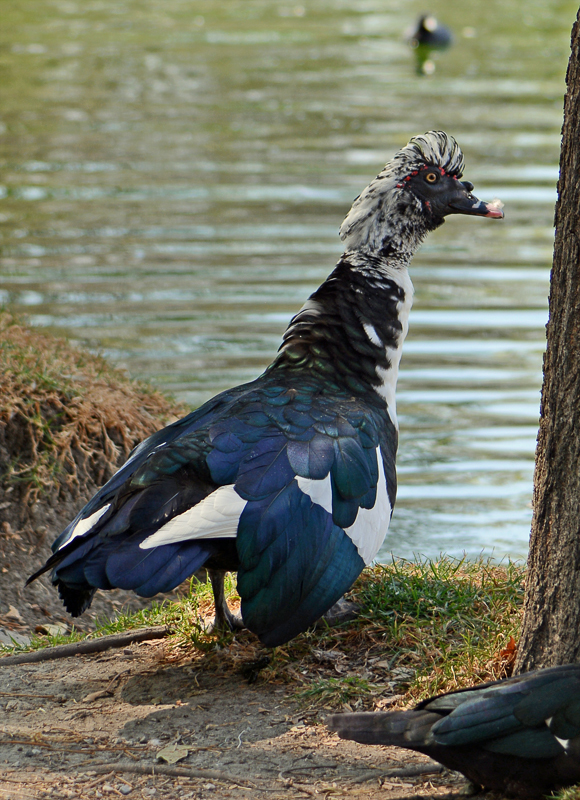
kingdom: Animalia
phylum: Chordata
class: Aves
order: Anseriformes
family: Anatidae
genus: Cairina
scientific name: Cairina moschata
